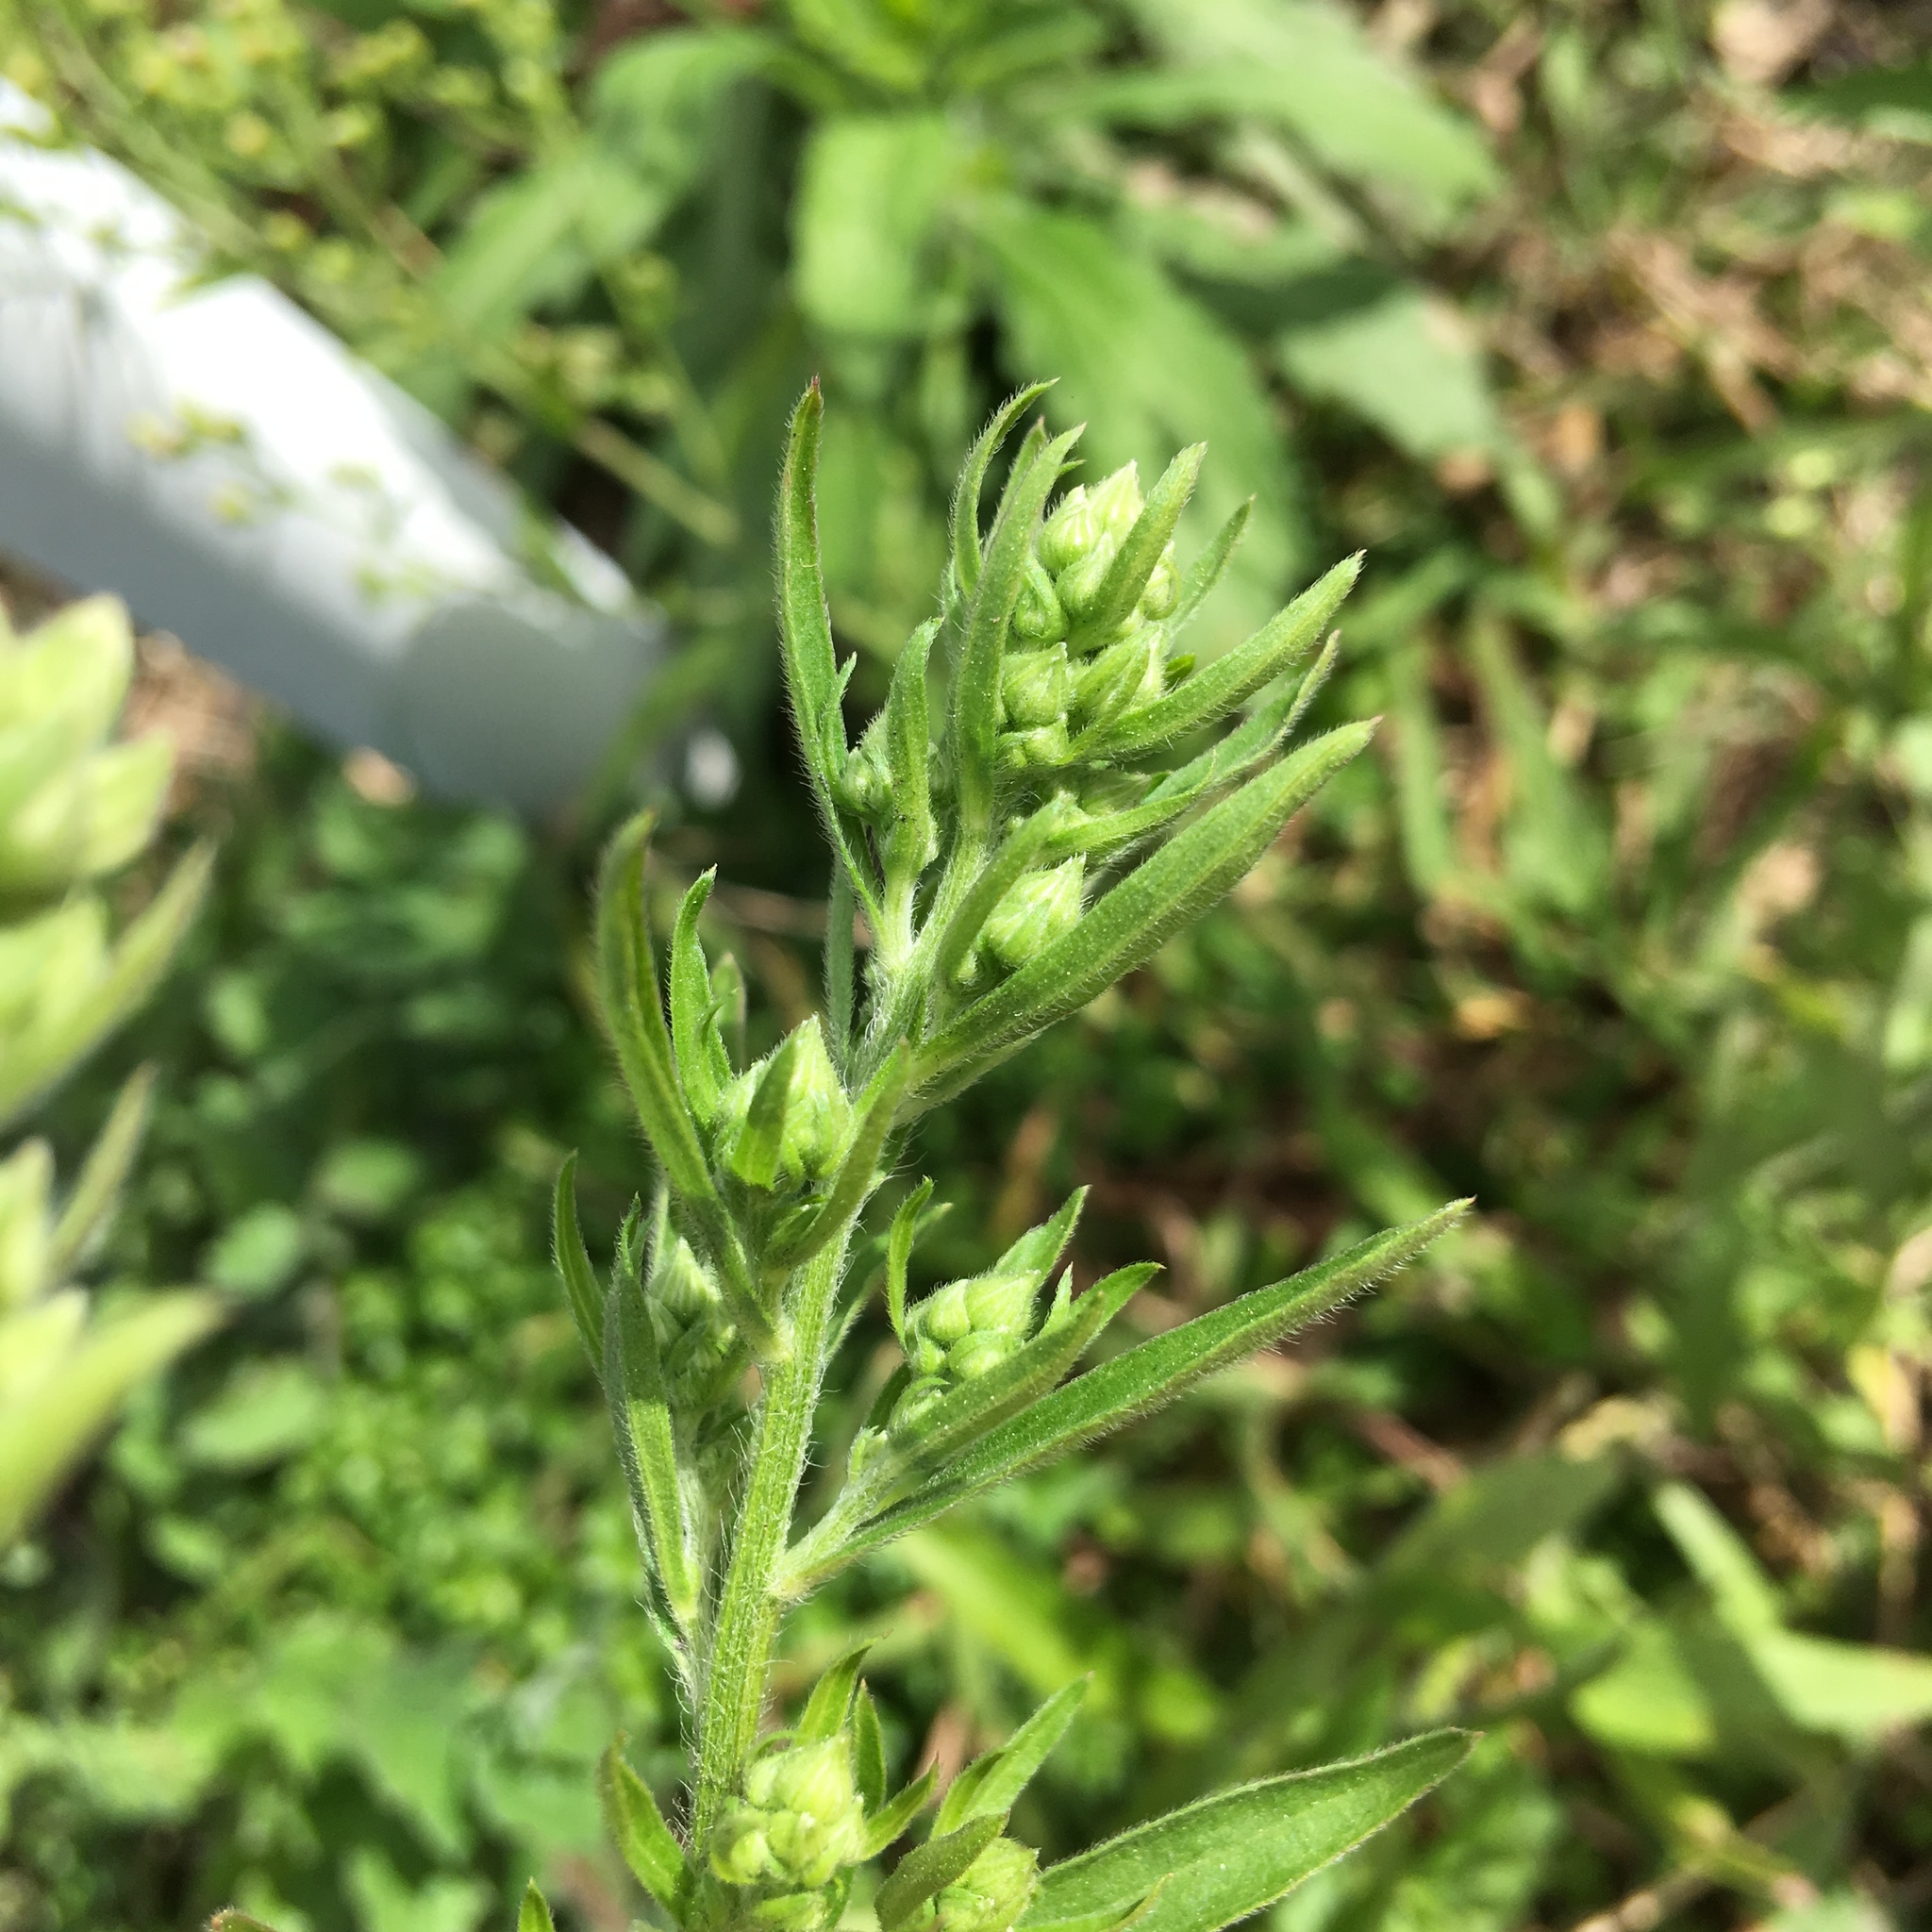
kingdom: Plantae
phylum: Tracheophyta
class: Magnoliopsida
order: Lamiales
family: Acanthaceae
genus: Avicennia
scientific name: Avicennia marina
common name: Gray mangrove
